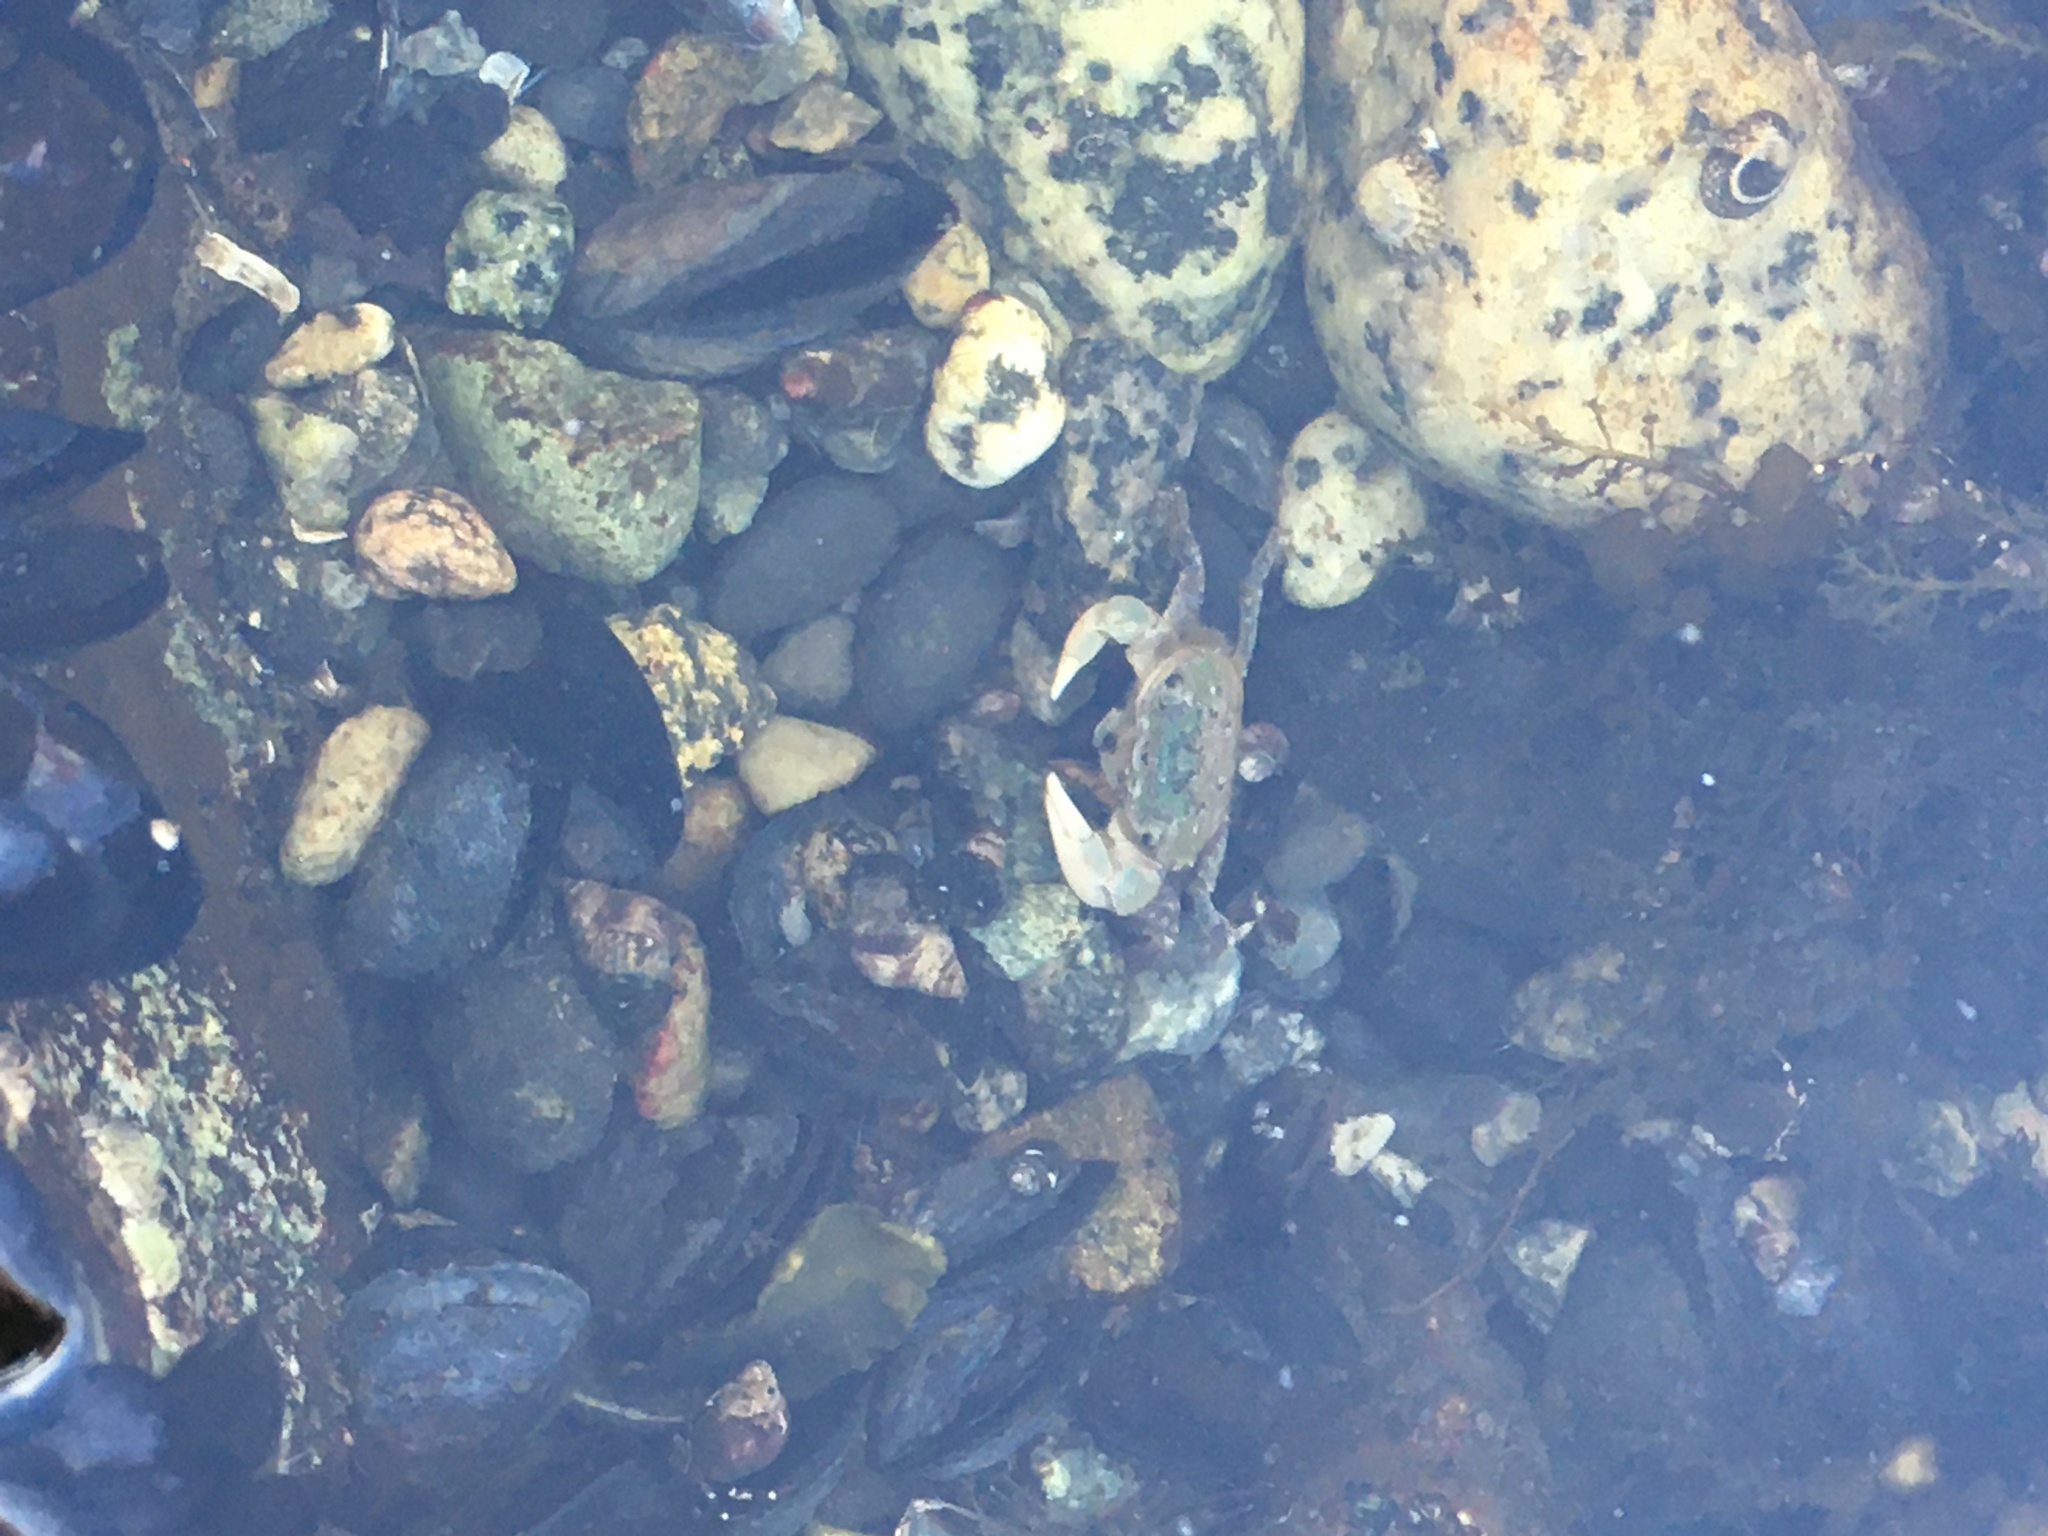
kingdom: Animalia
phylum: Arthropoda
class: Malacostraca
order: Decapoda
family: Varunidae
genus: Hemigrapsus
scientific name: Hemigrapsus oregonensis
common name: Yellow shore crab
